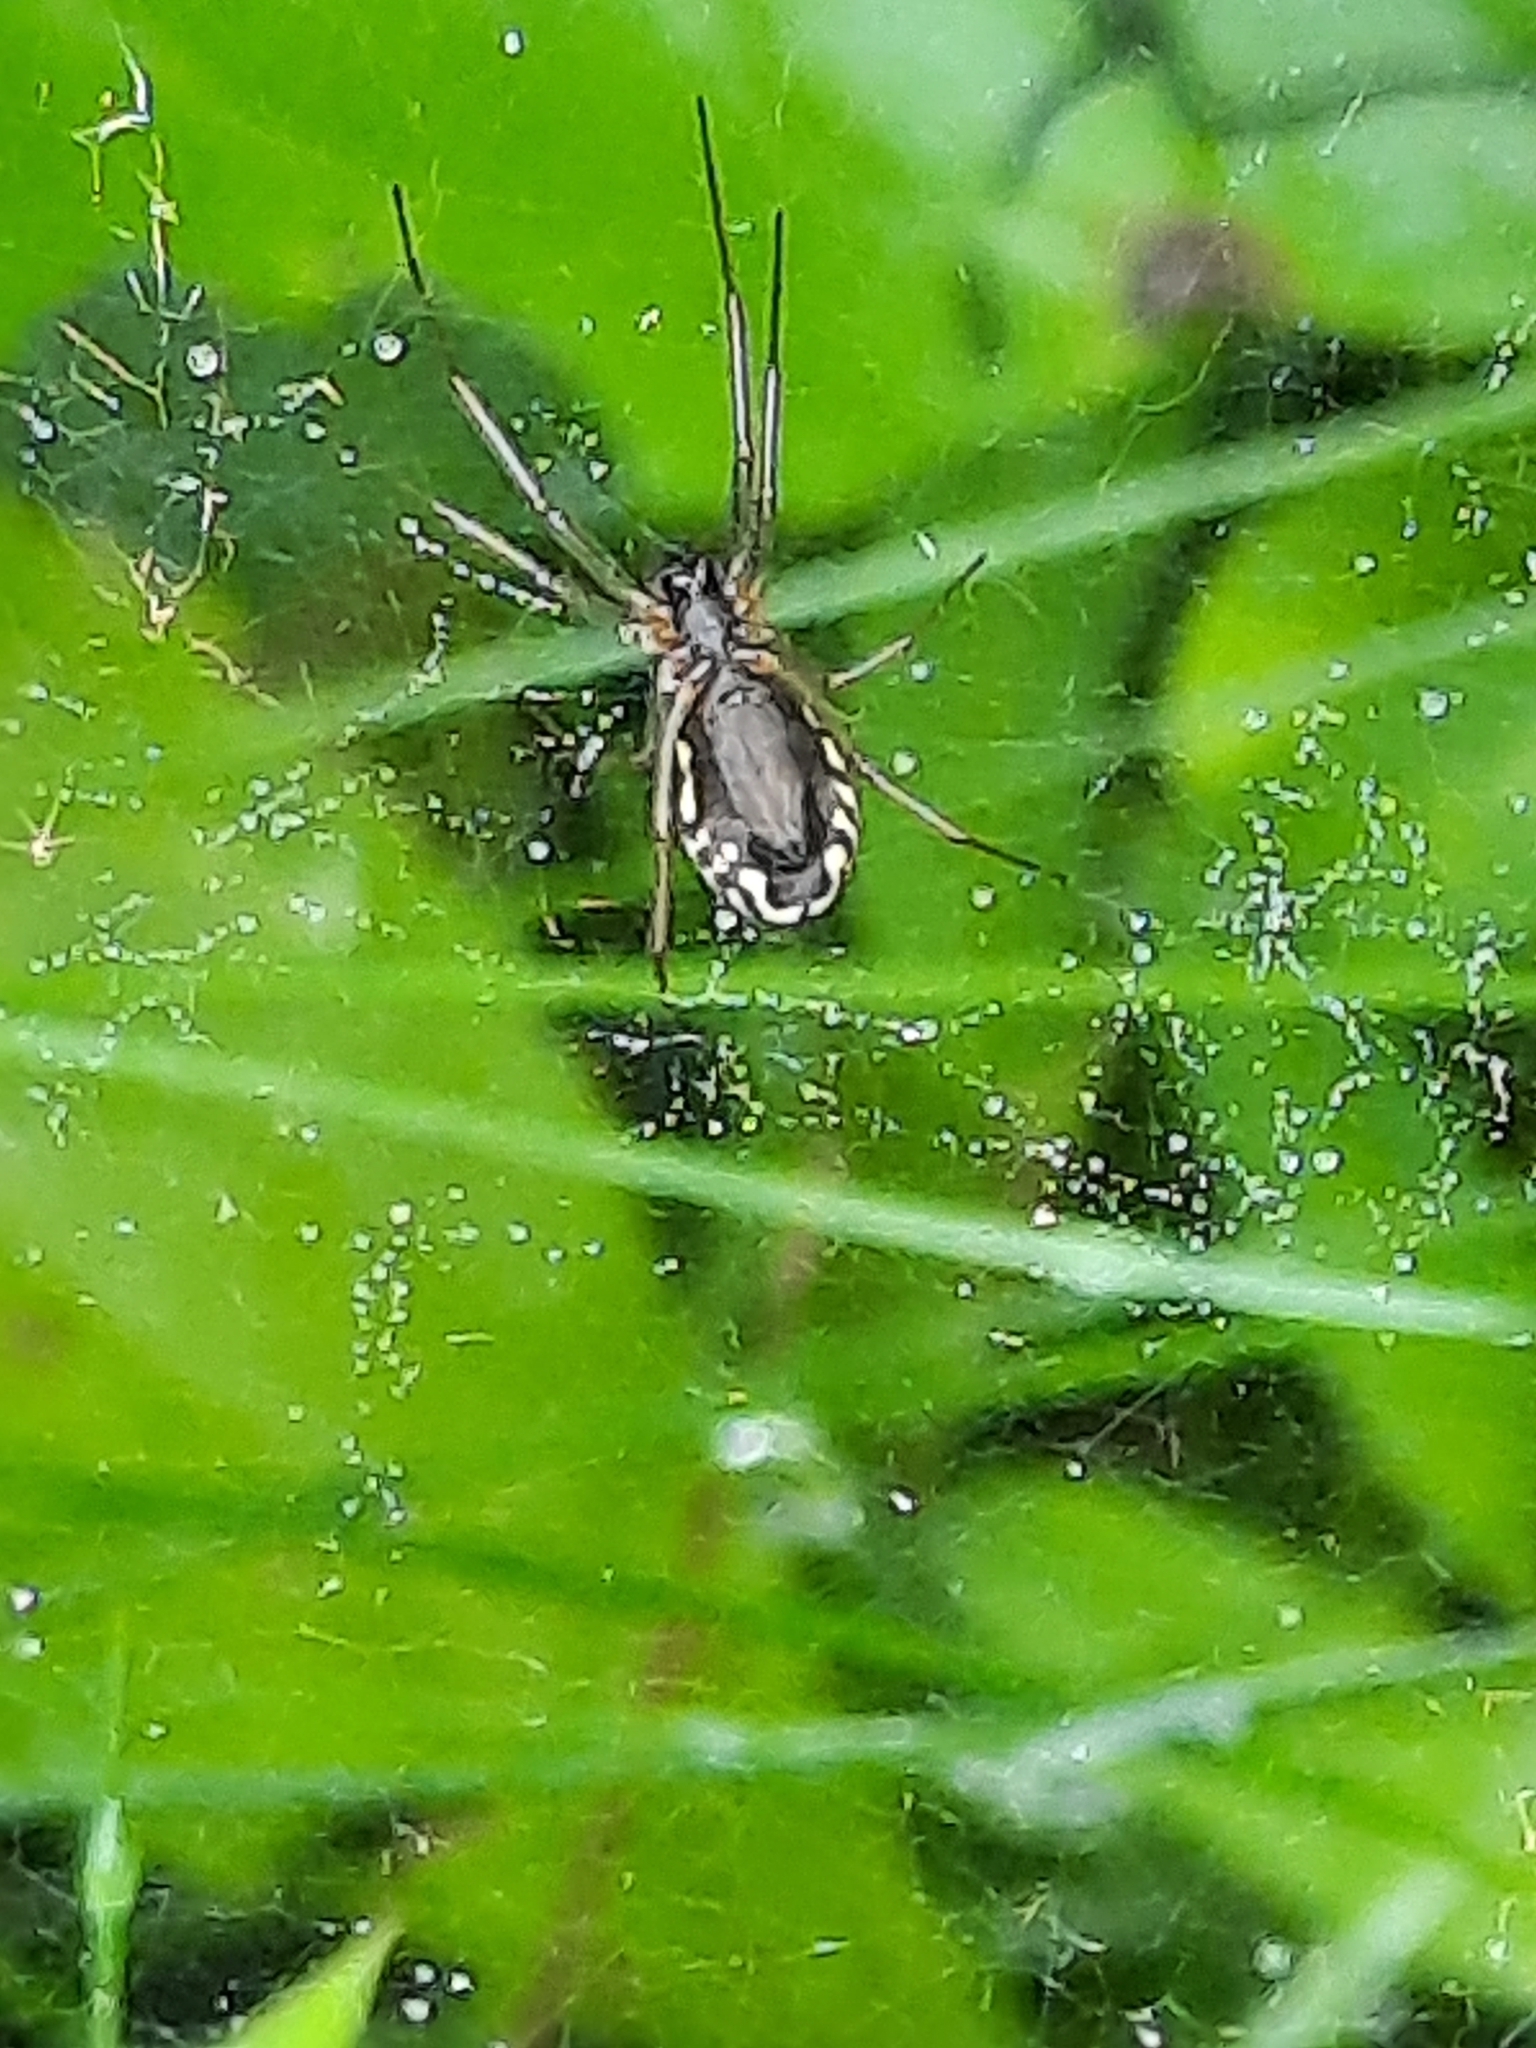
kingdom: Animalia
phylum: Arthropoda
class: Arachnida
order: Araneae
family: Linyphiidae
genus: Frontinella
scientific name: Frontinella pyramitela
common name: Bowl-and-doily spider
